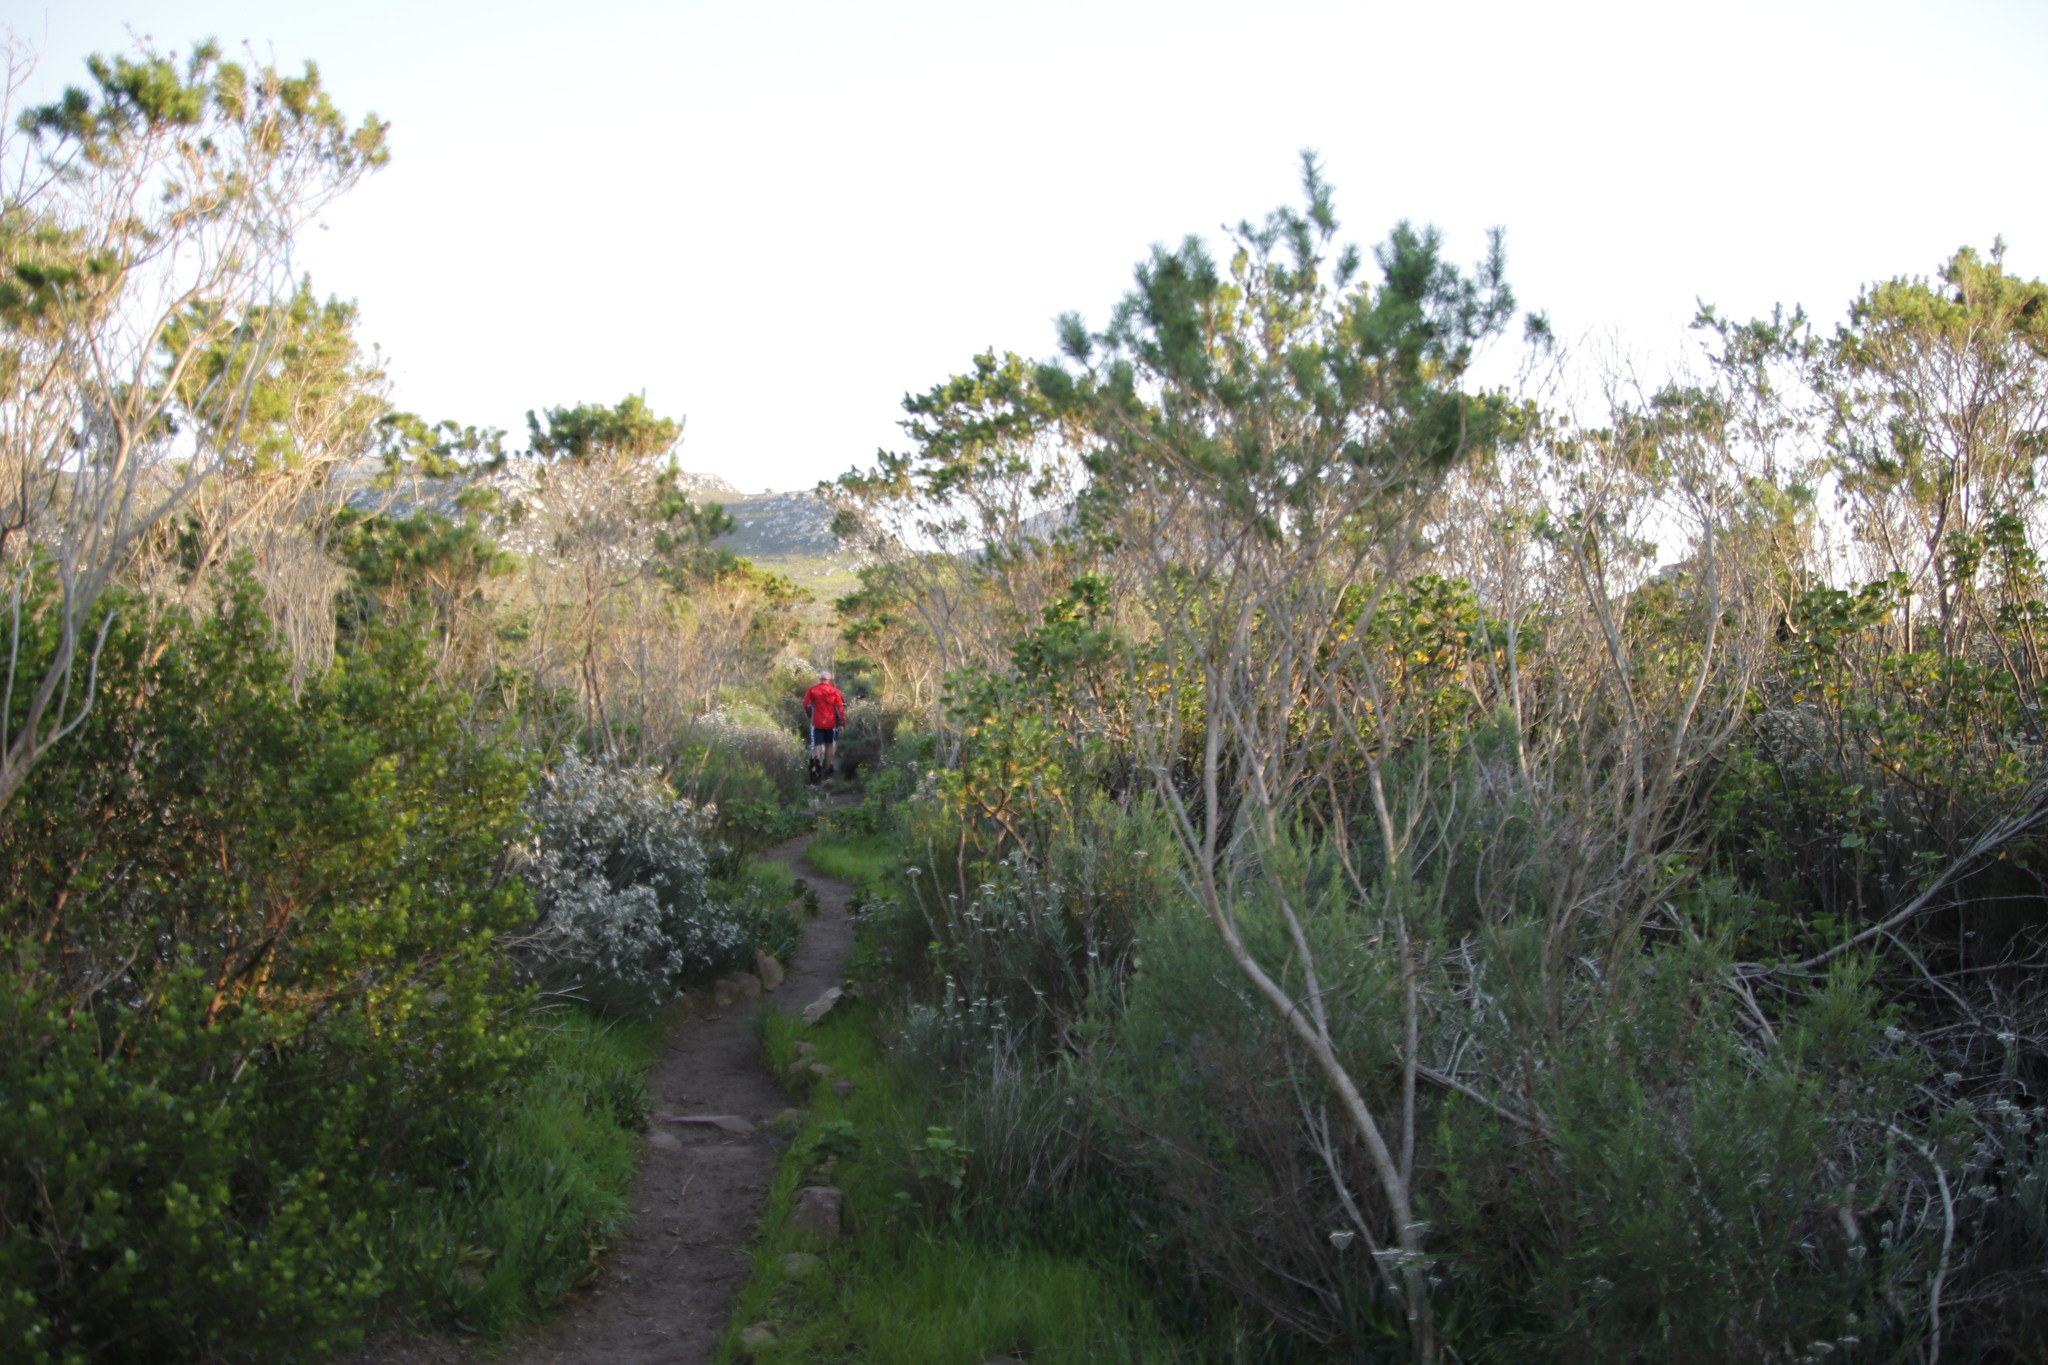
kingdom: Plantae
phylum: Tracheophyta
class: Magnoliopsida
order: Fabales
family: Fabaceae
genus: Psoralea
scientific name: Psoralea pinnata
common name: African scurfpea
